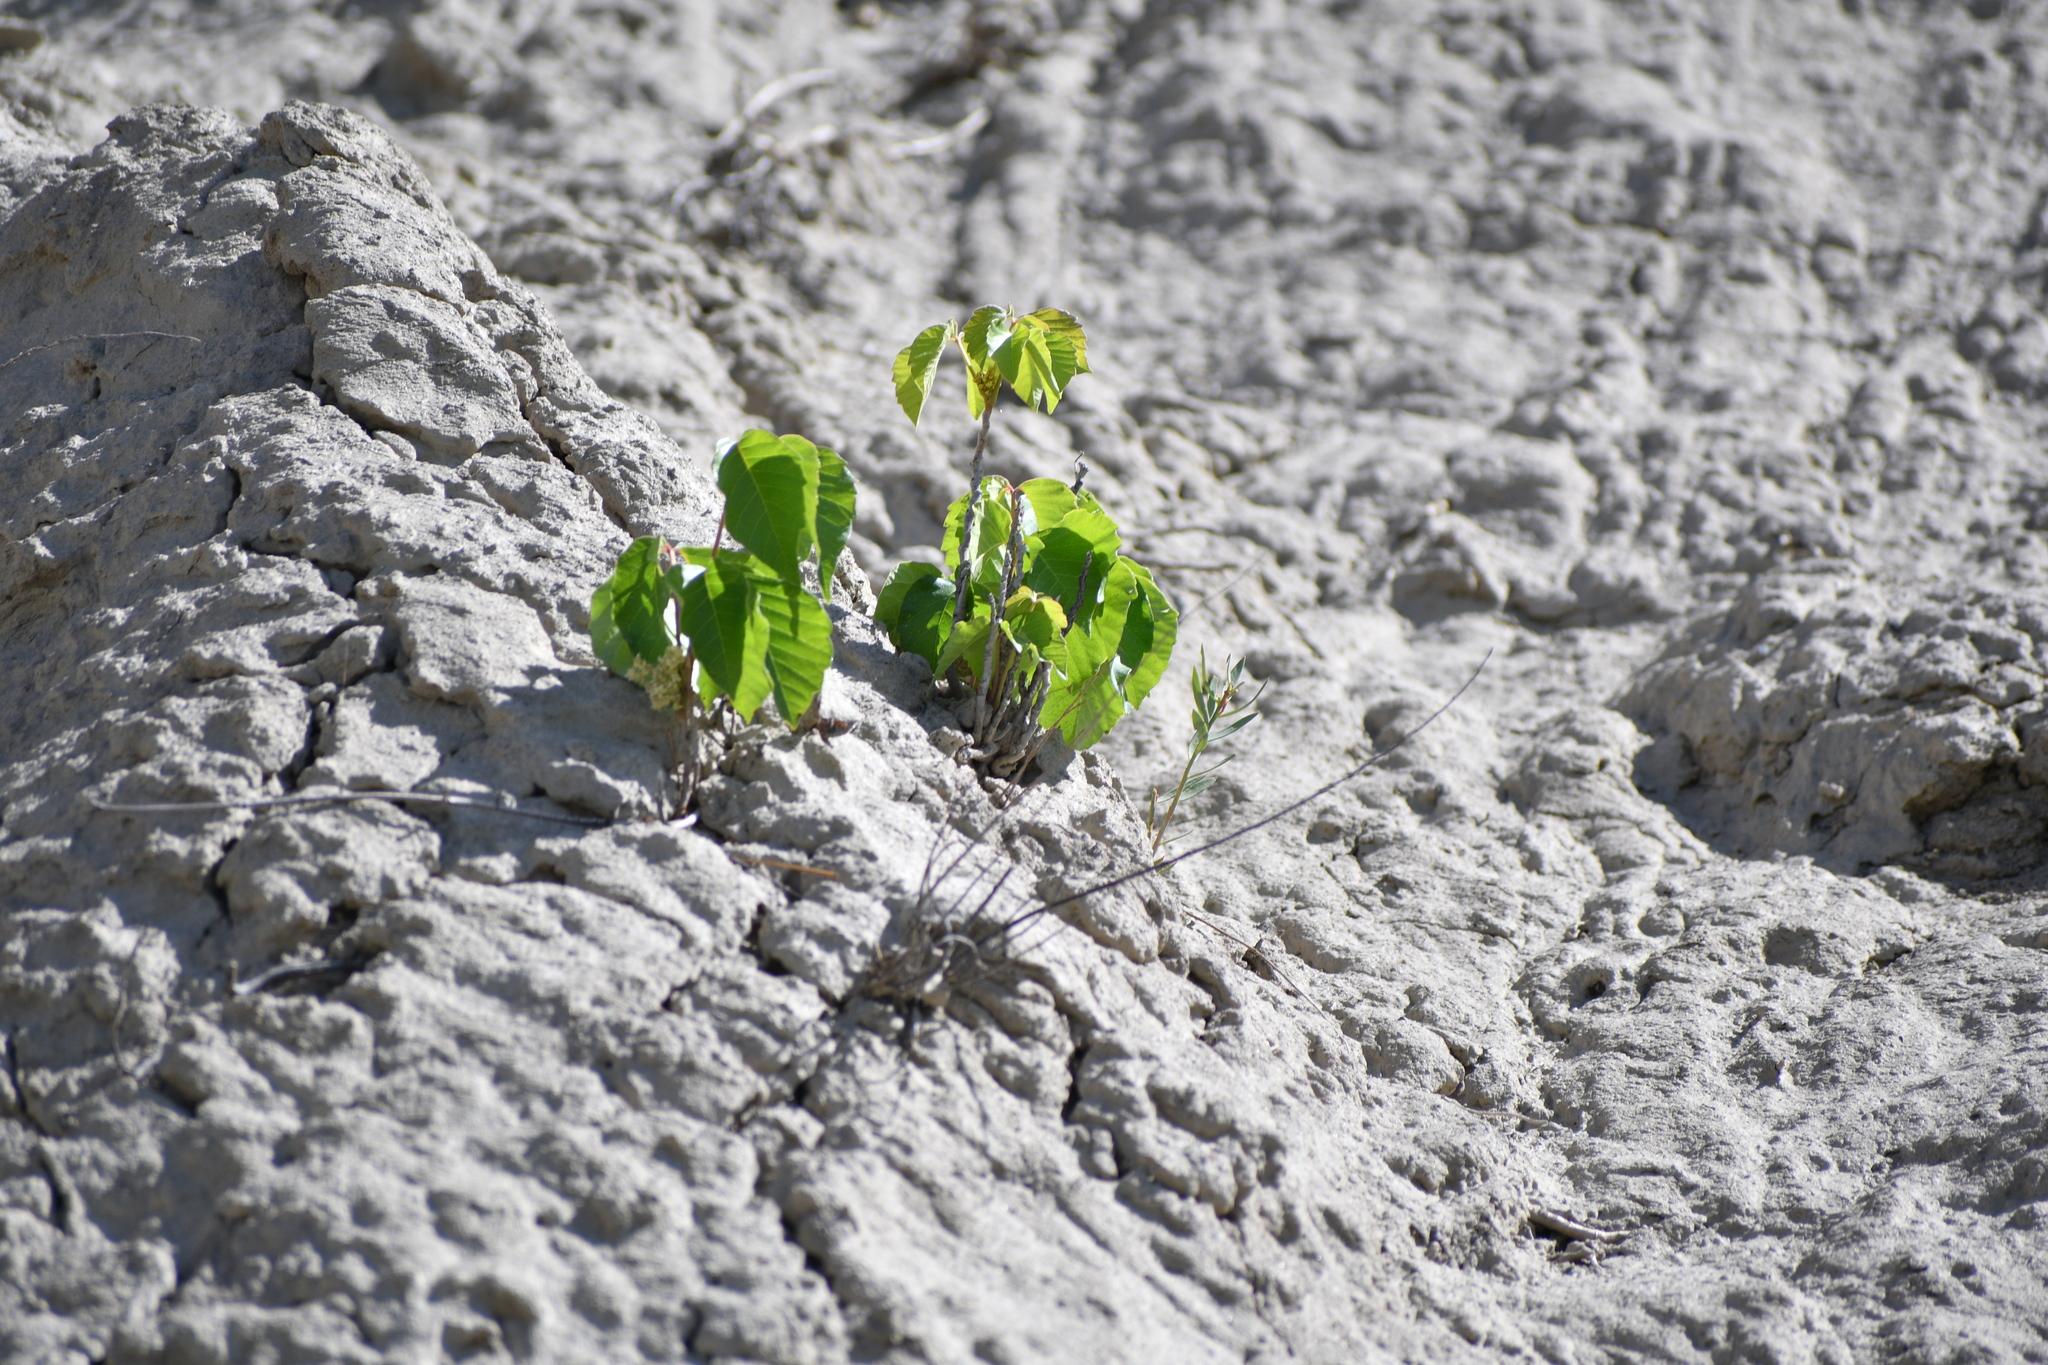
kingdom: Plantae
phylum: Tracheophyta
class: Magnoliopsida
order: Sapindales
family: Anacardiaceae
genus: Toxicodendron
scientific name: Toxicodendron rydbergii
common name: Rydberg's poison-ivy
